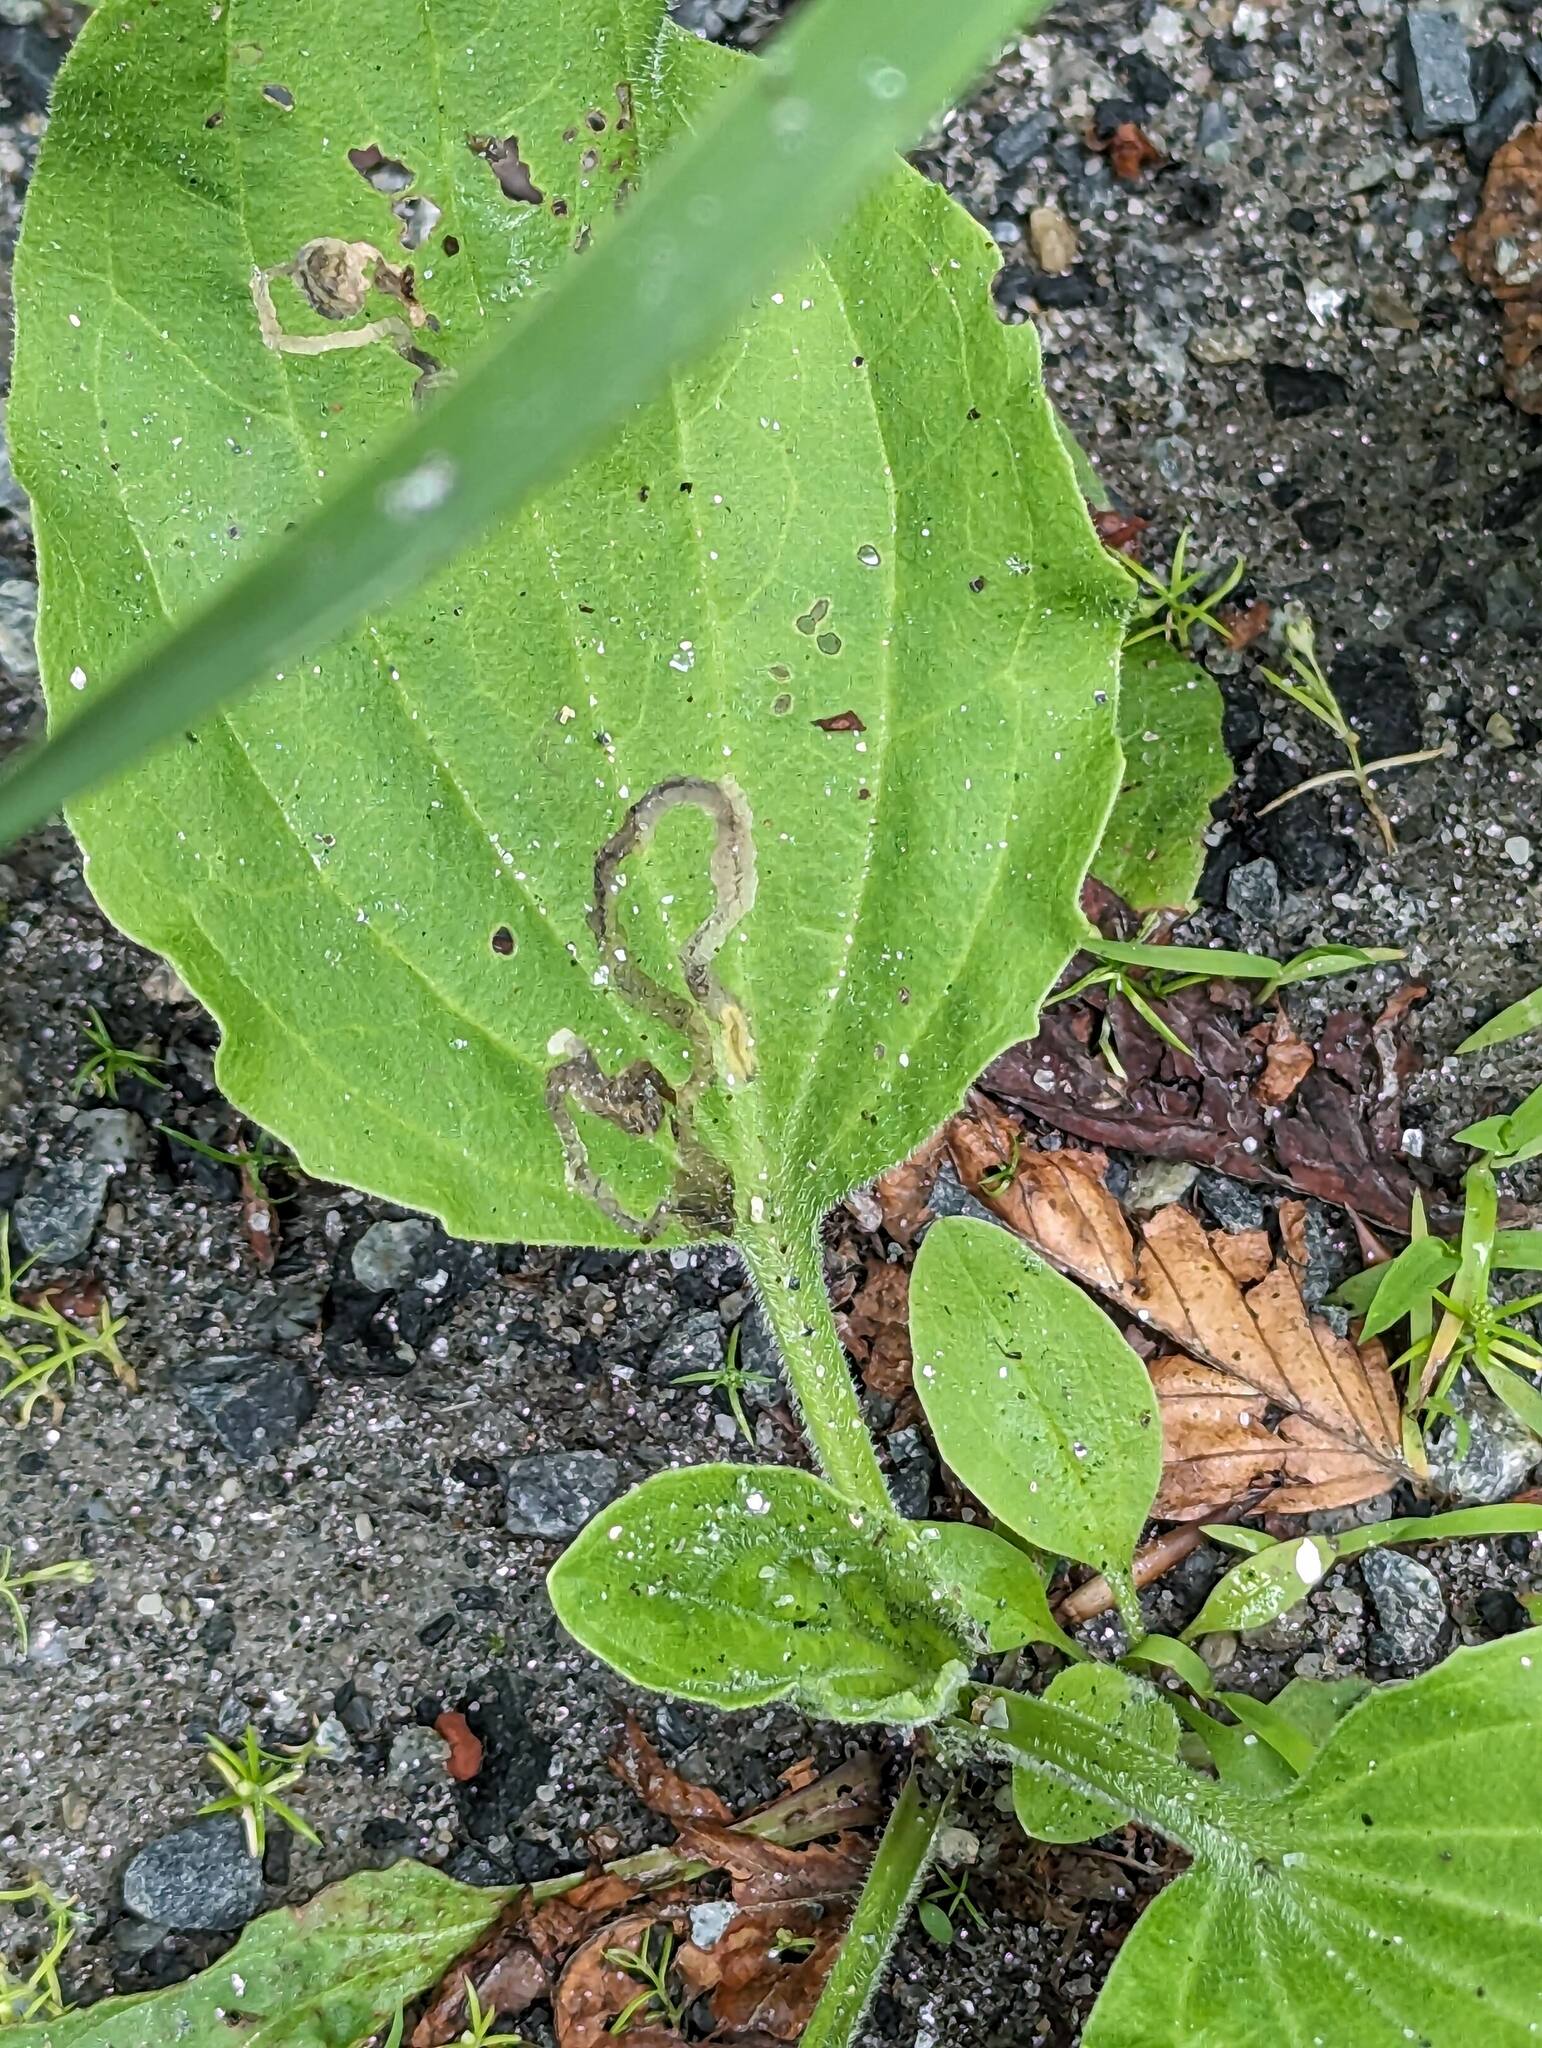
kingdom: Animalia
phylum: Arthropoda
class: Insecta
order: Coleoptera
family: Chrysomelidae
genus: Dibolia
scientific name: Dibolia borealis
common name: Northern plantain flea beetle
